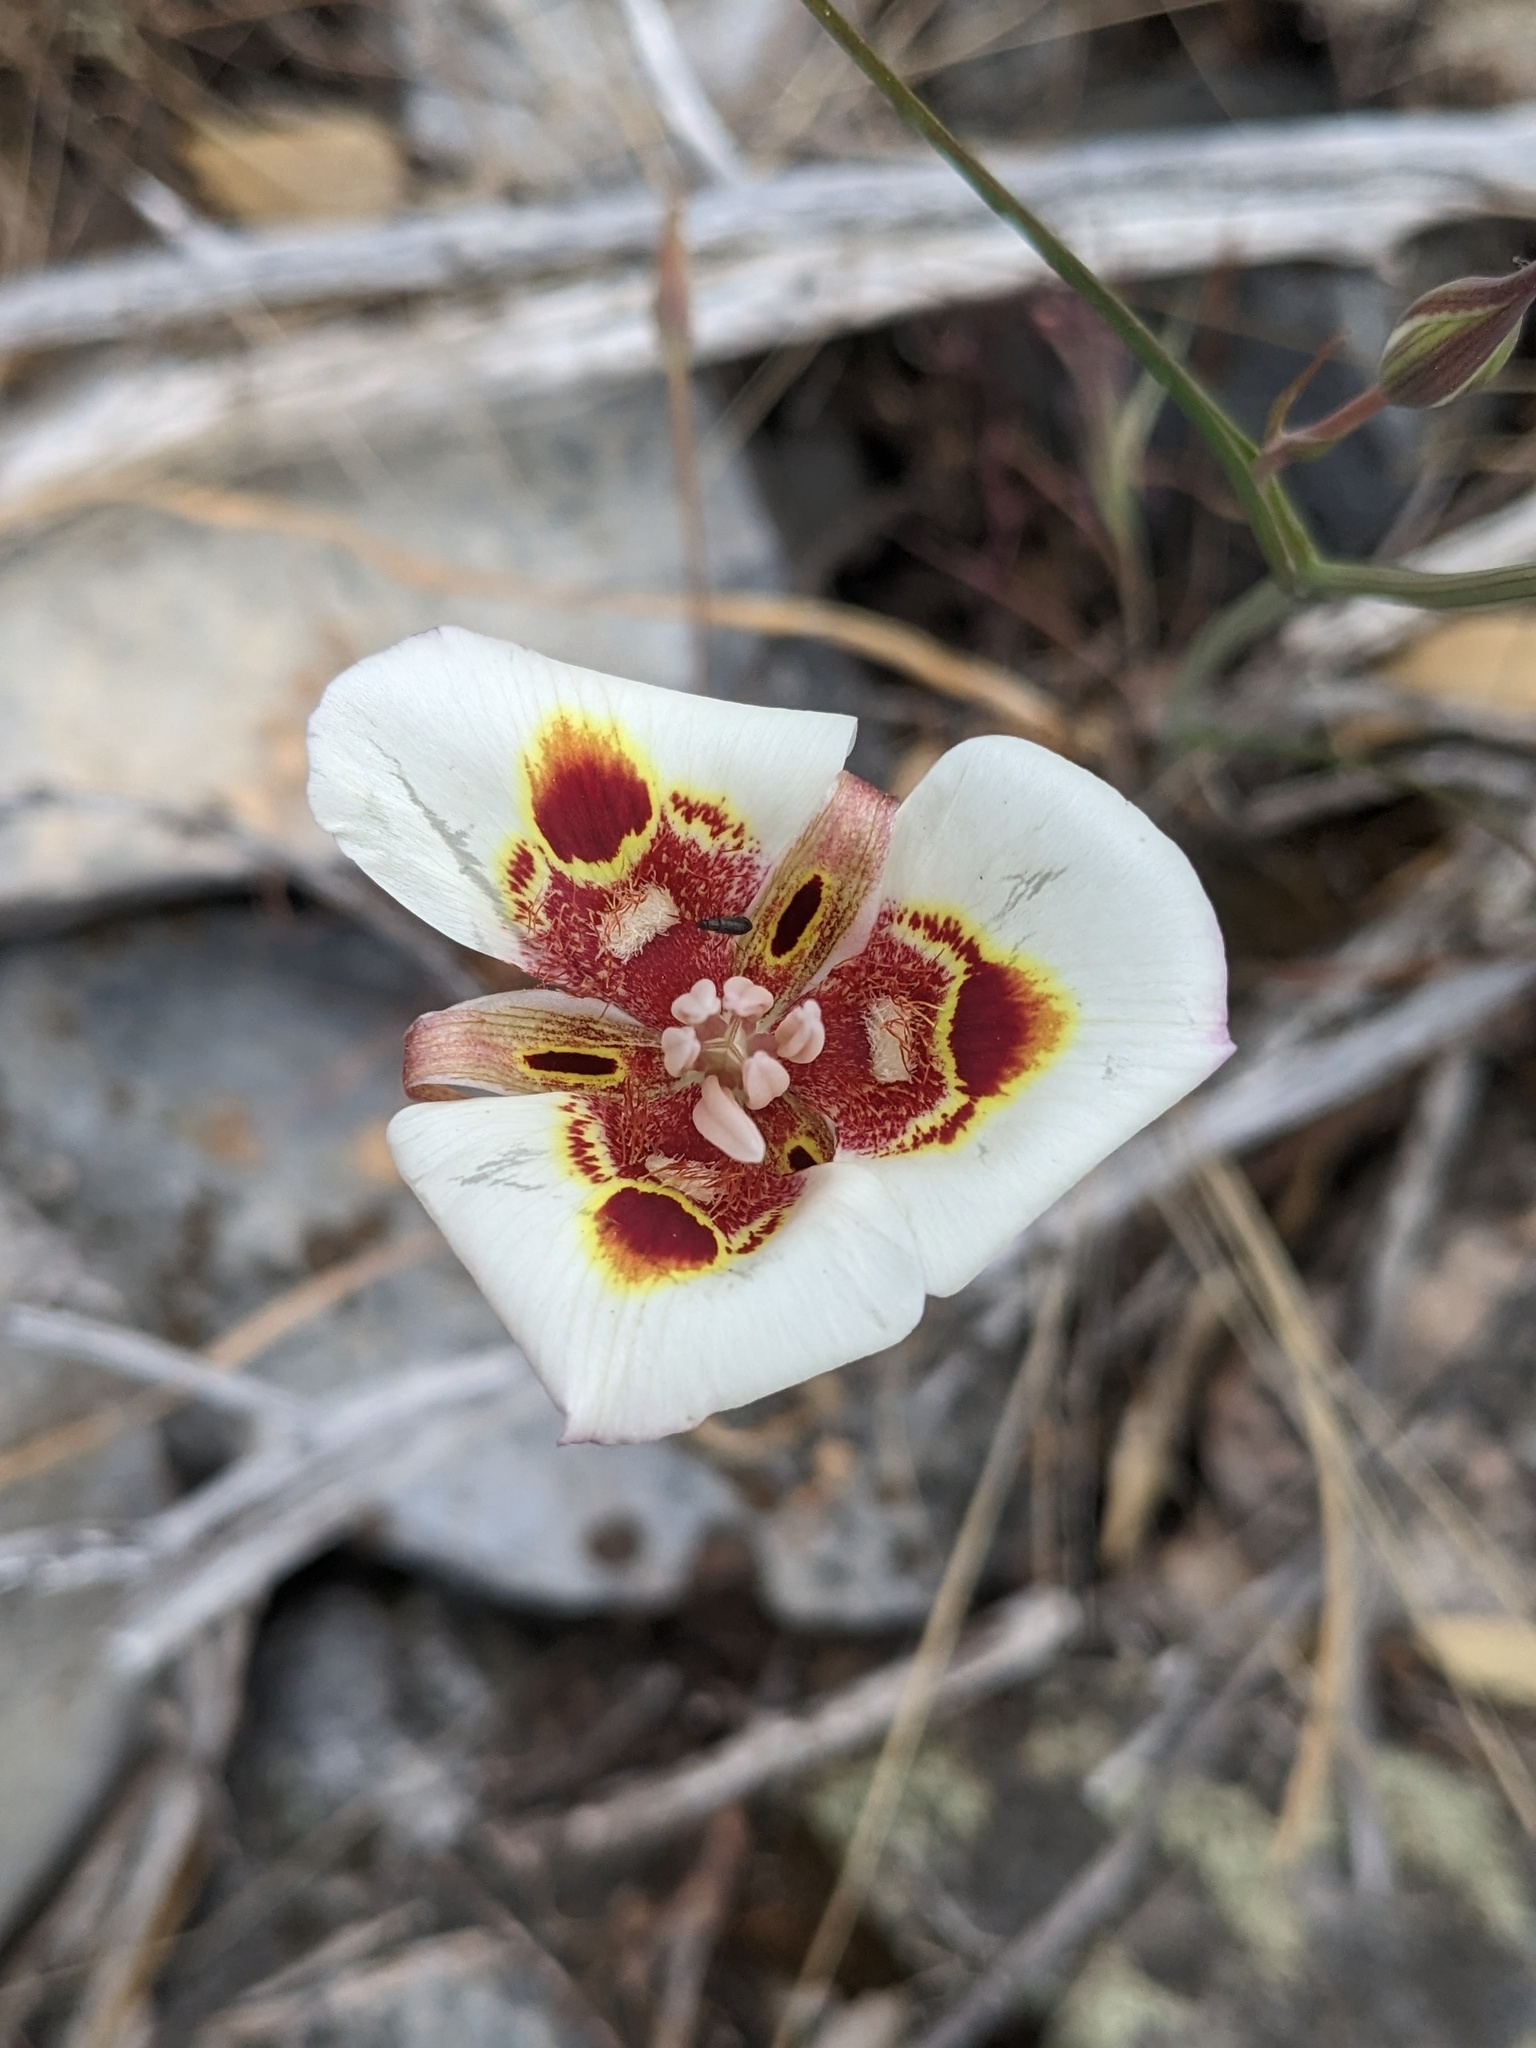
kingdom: Plantae
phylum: Tracheophyta
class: Liliopsida
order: Liliales
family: Liliaceae
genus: Calochortus
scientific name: Calochortus venustus
